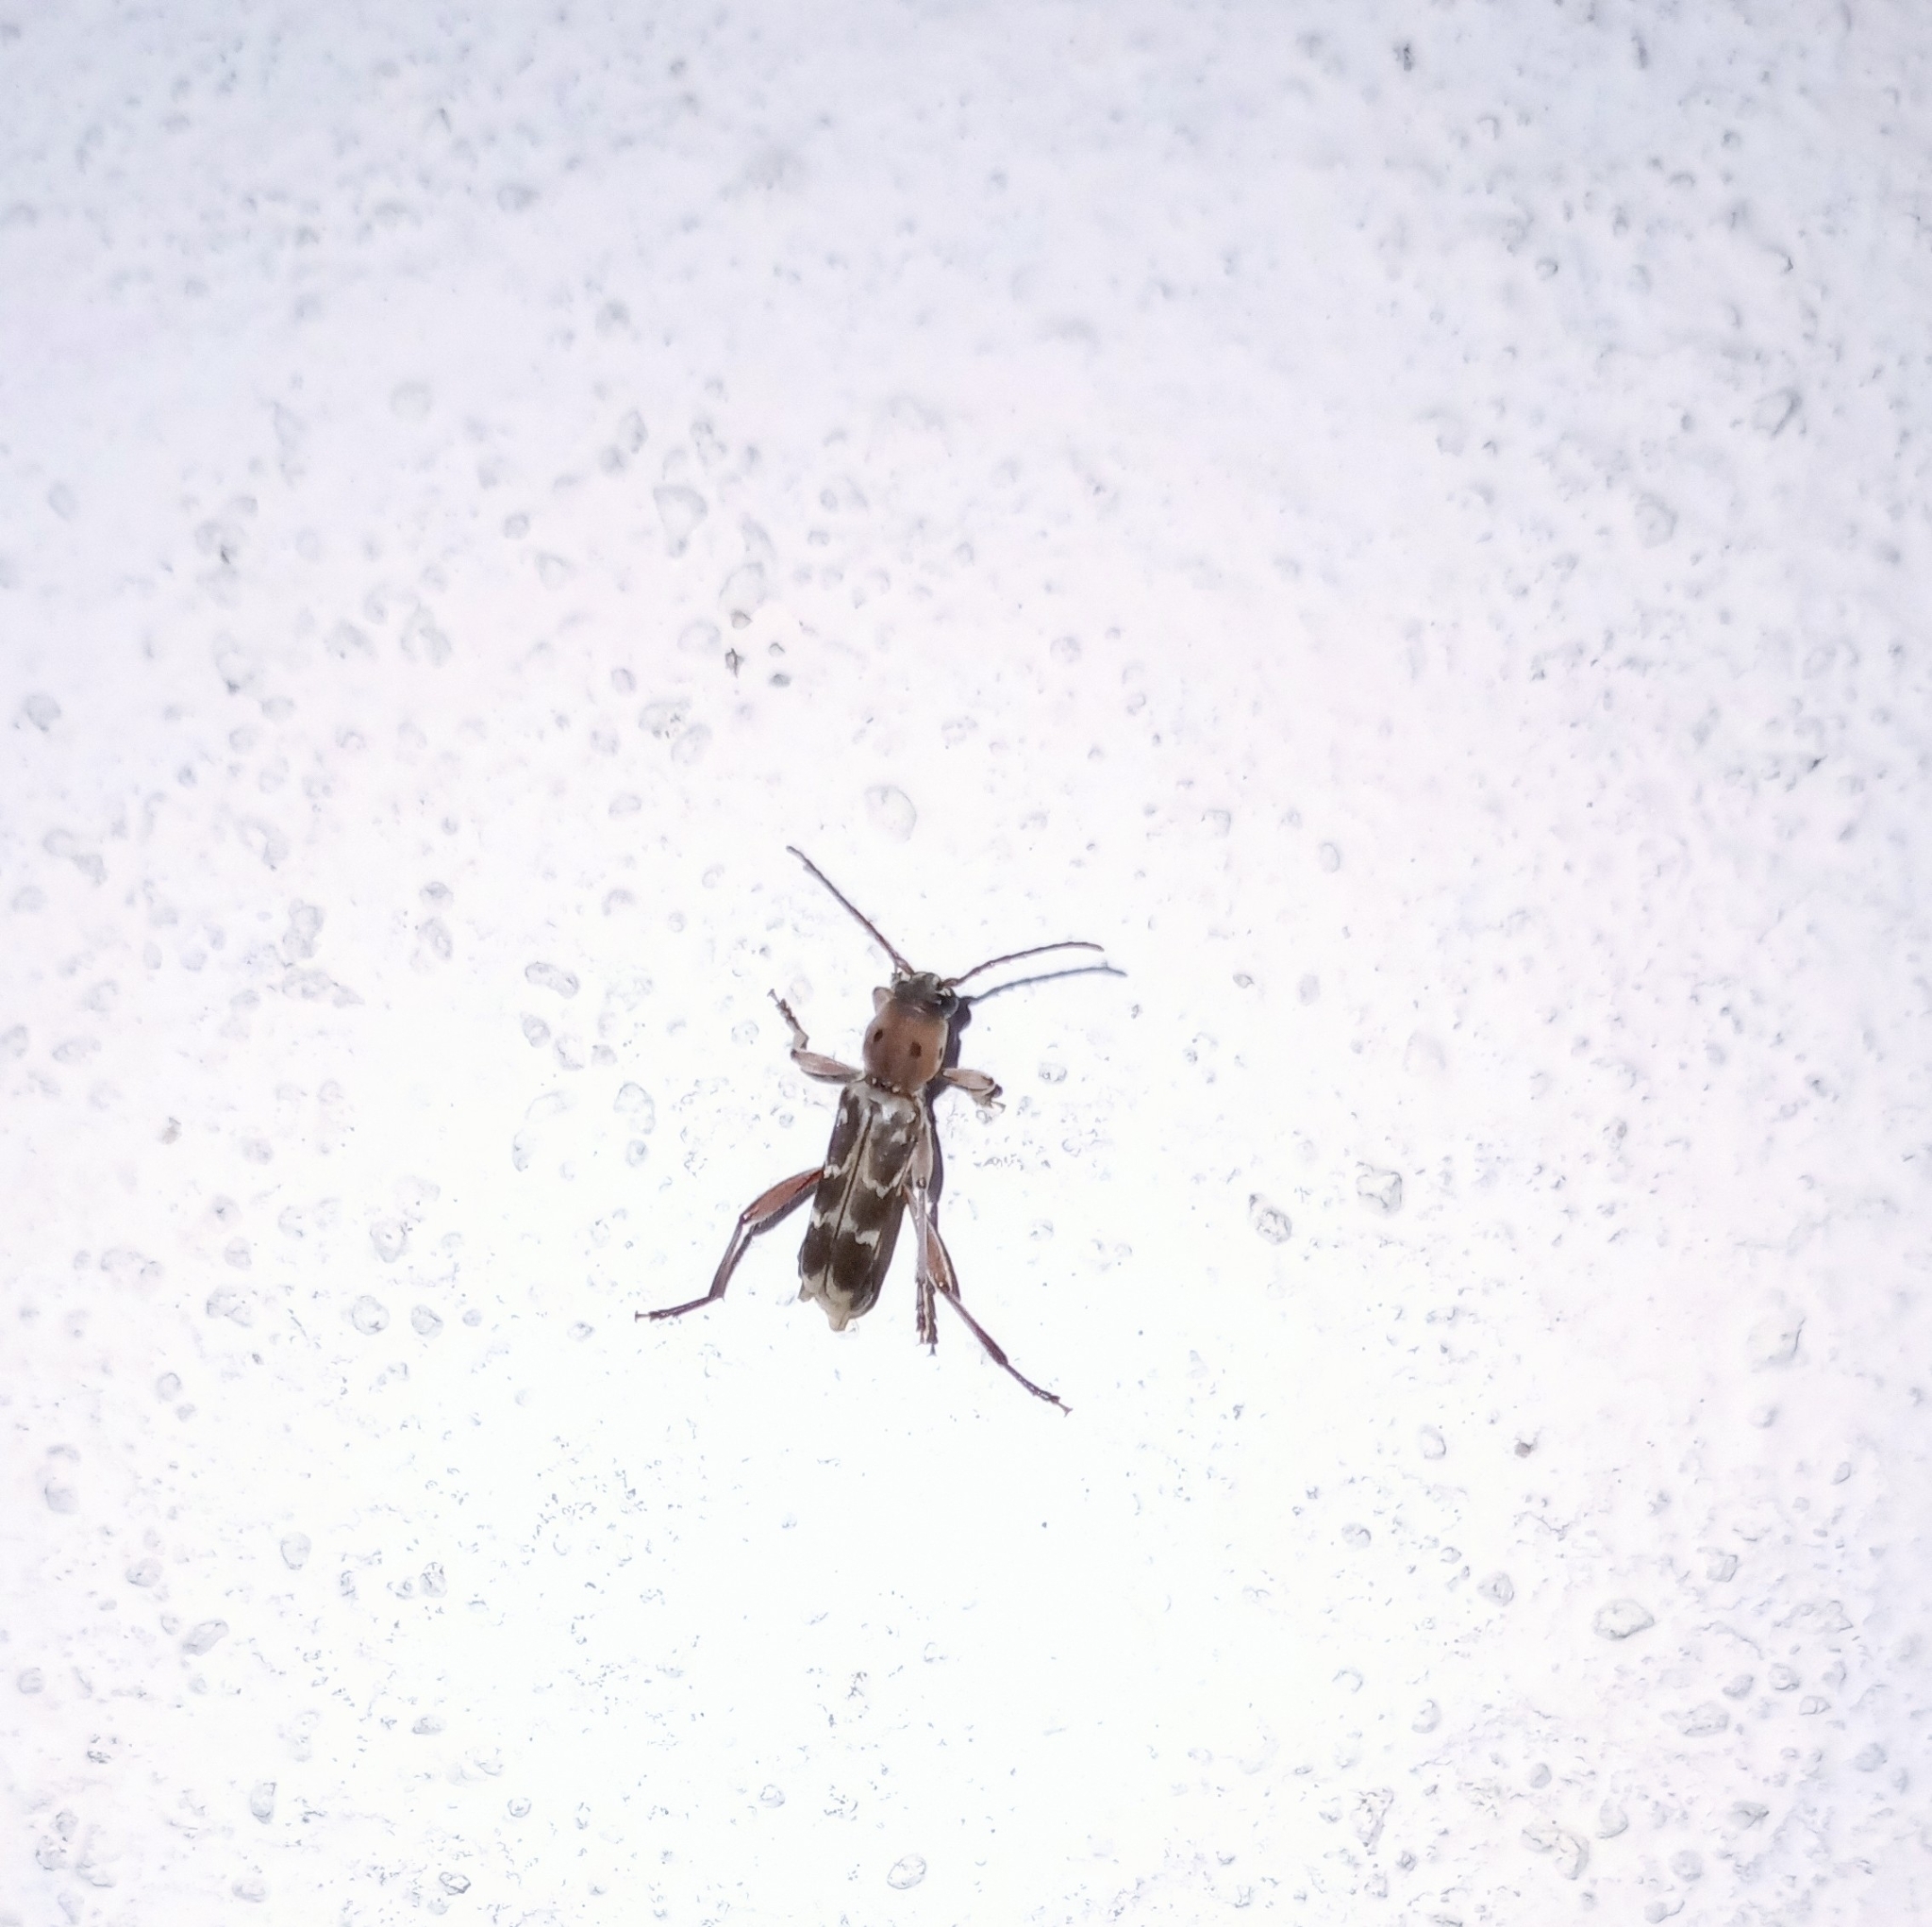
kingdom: Animalia
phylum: Arthropoda
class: Insecta
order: Coleoptera
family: Cerambycidae
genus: Xylotrechus
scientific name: Xylotrechus smei
